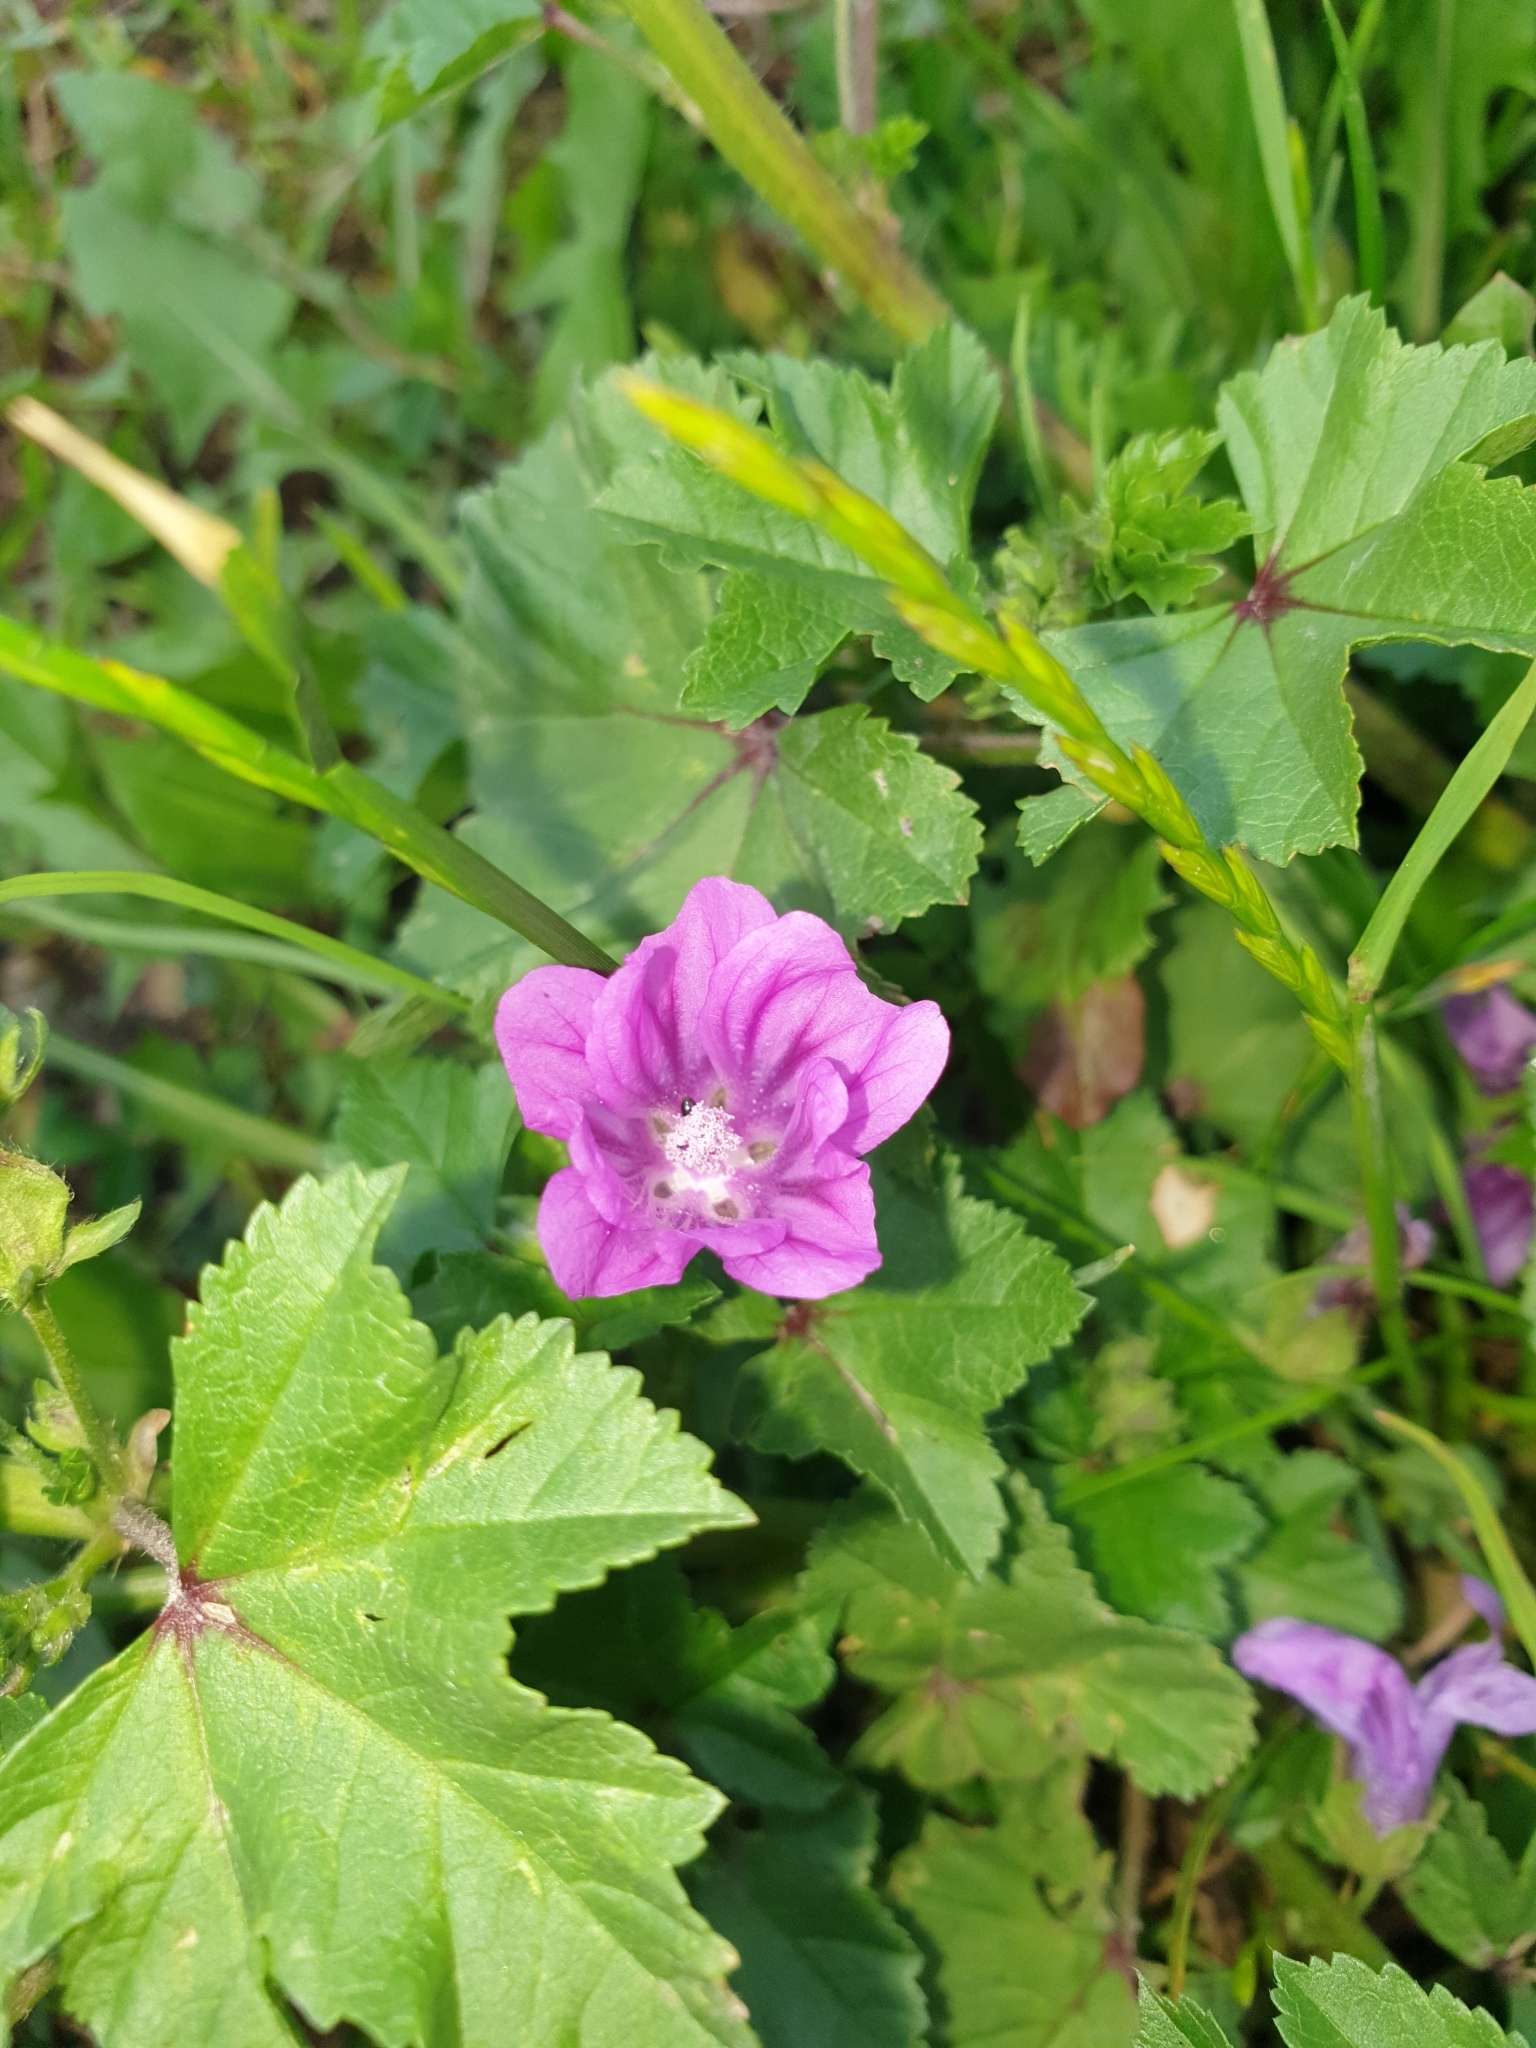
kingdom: Plantae
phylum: Tracheophyta
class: Magnoliopsida
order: Malvales
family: Malvaceae
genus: Malva
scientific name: Malva sylvestris
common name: Common mallow
